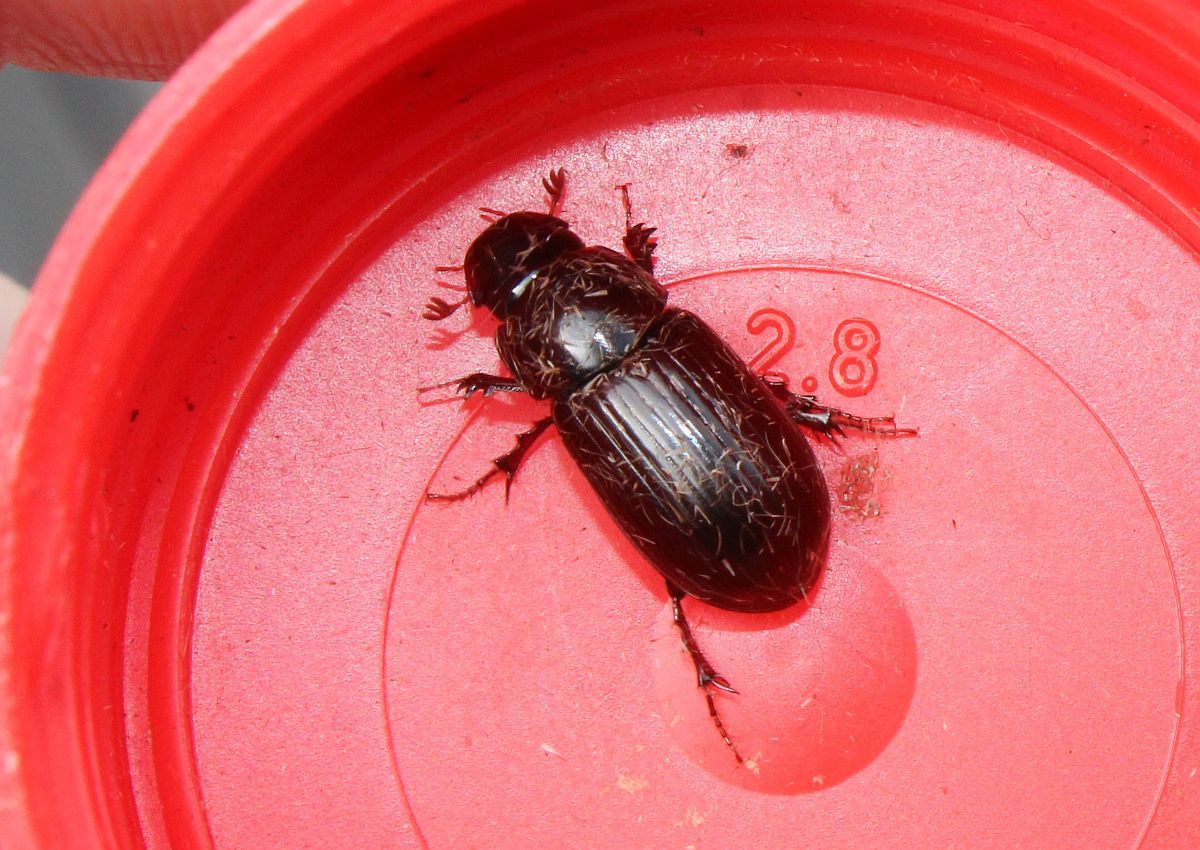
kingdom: Animalia
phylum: Arthropoda
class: Insecta
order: Coleoptera
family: Scarabaeidae
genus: Acrossus
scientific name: Acrossus rufipes
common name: Night-flying dung beetle
